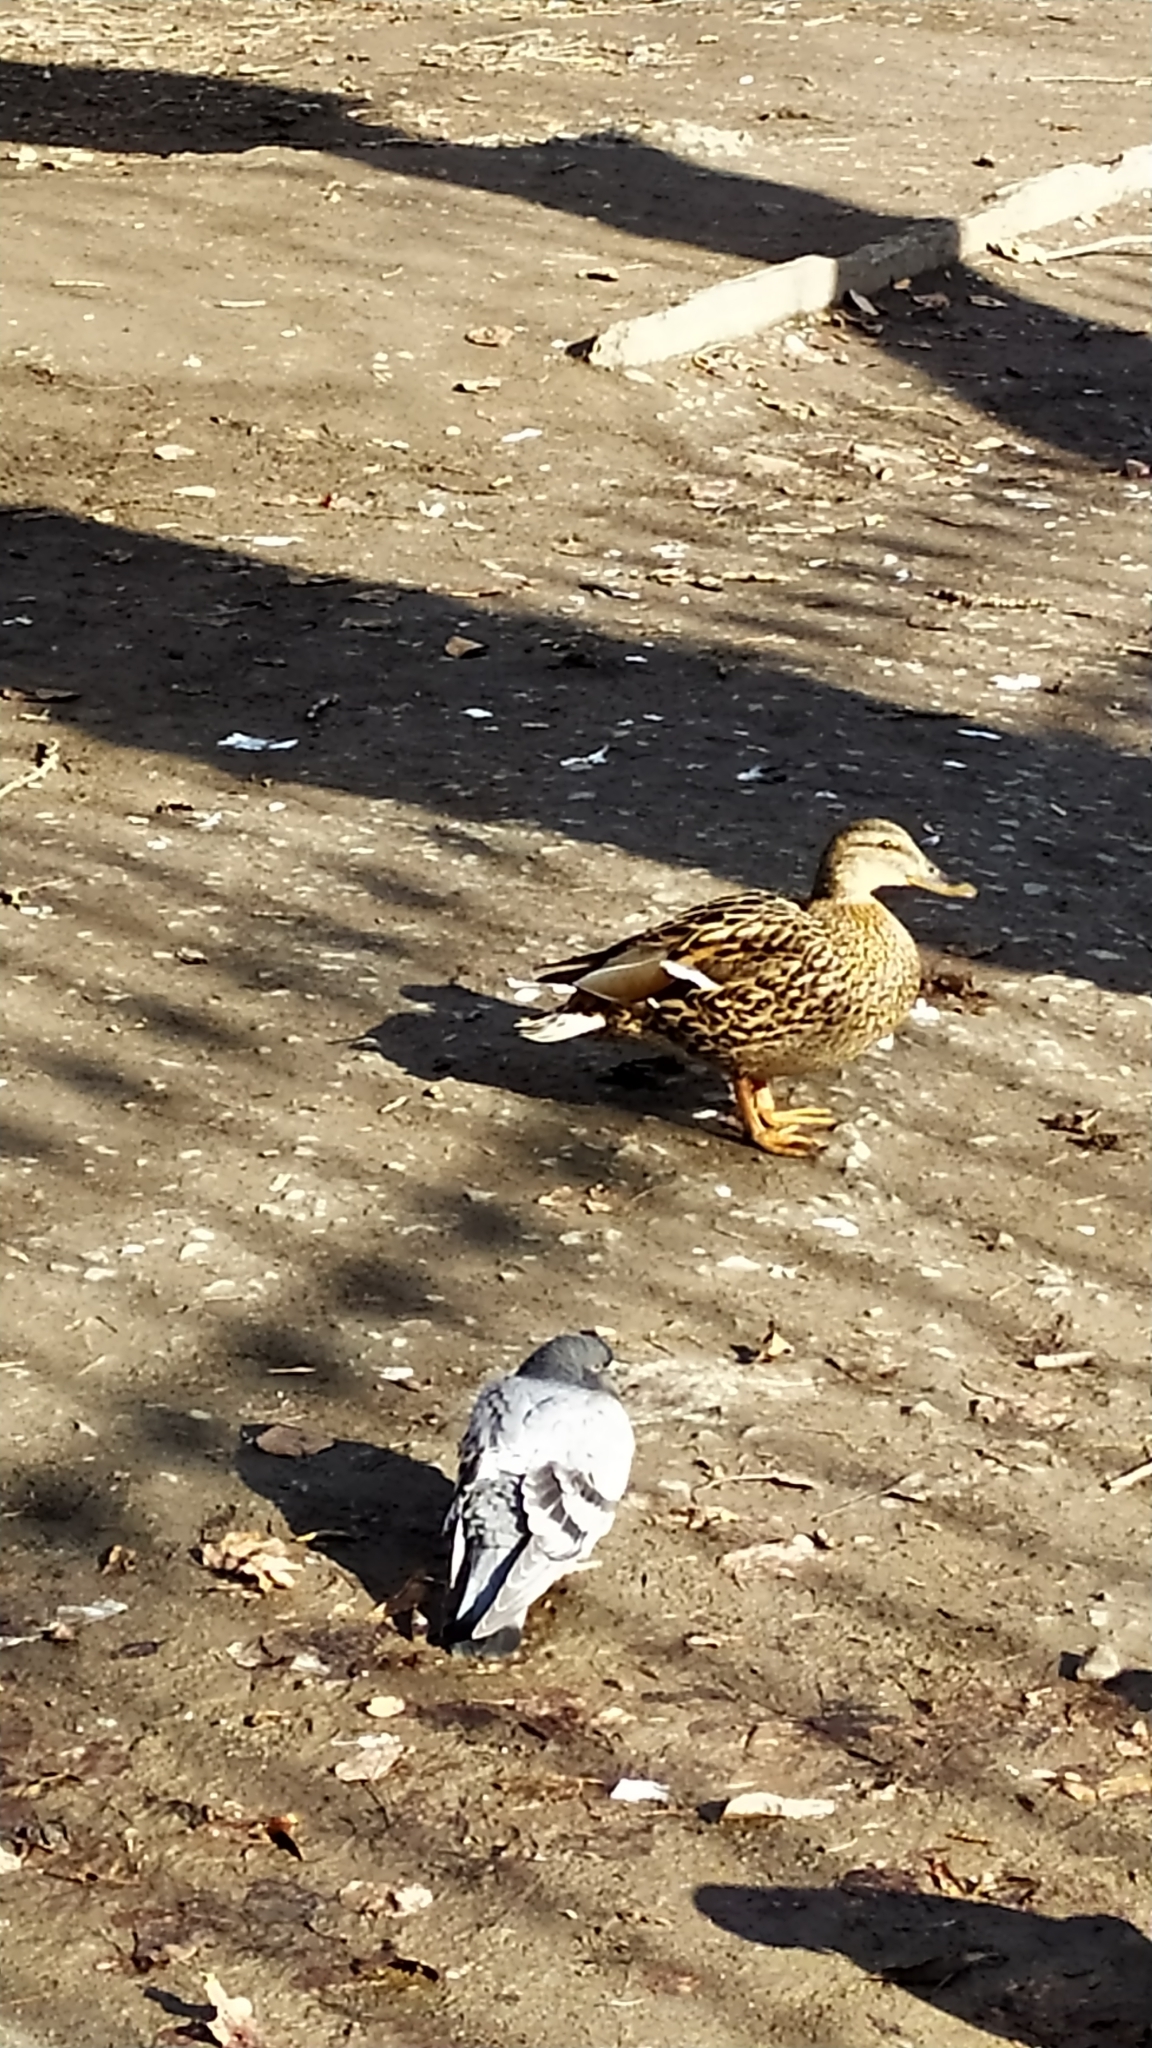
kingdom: Animalia
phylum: Chordata
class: Aves
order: Anseriformes
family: Anatidae
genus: Anas
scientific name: Anas platyrhynchos
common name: Mallard
